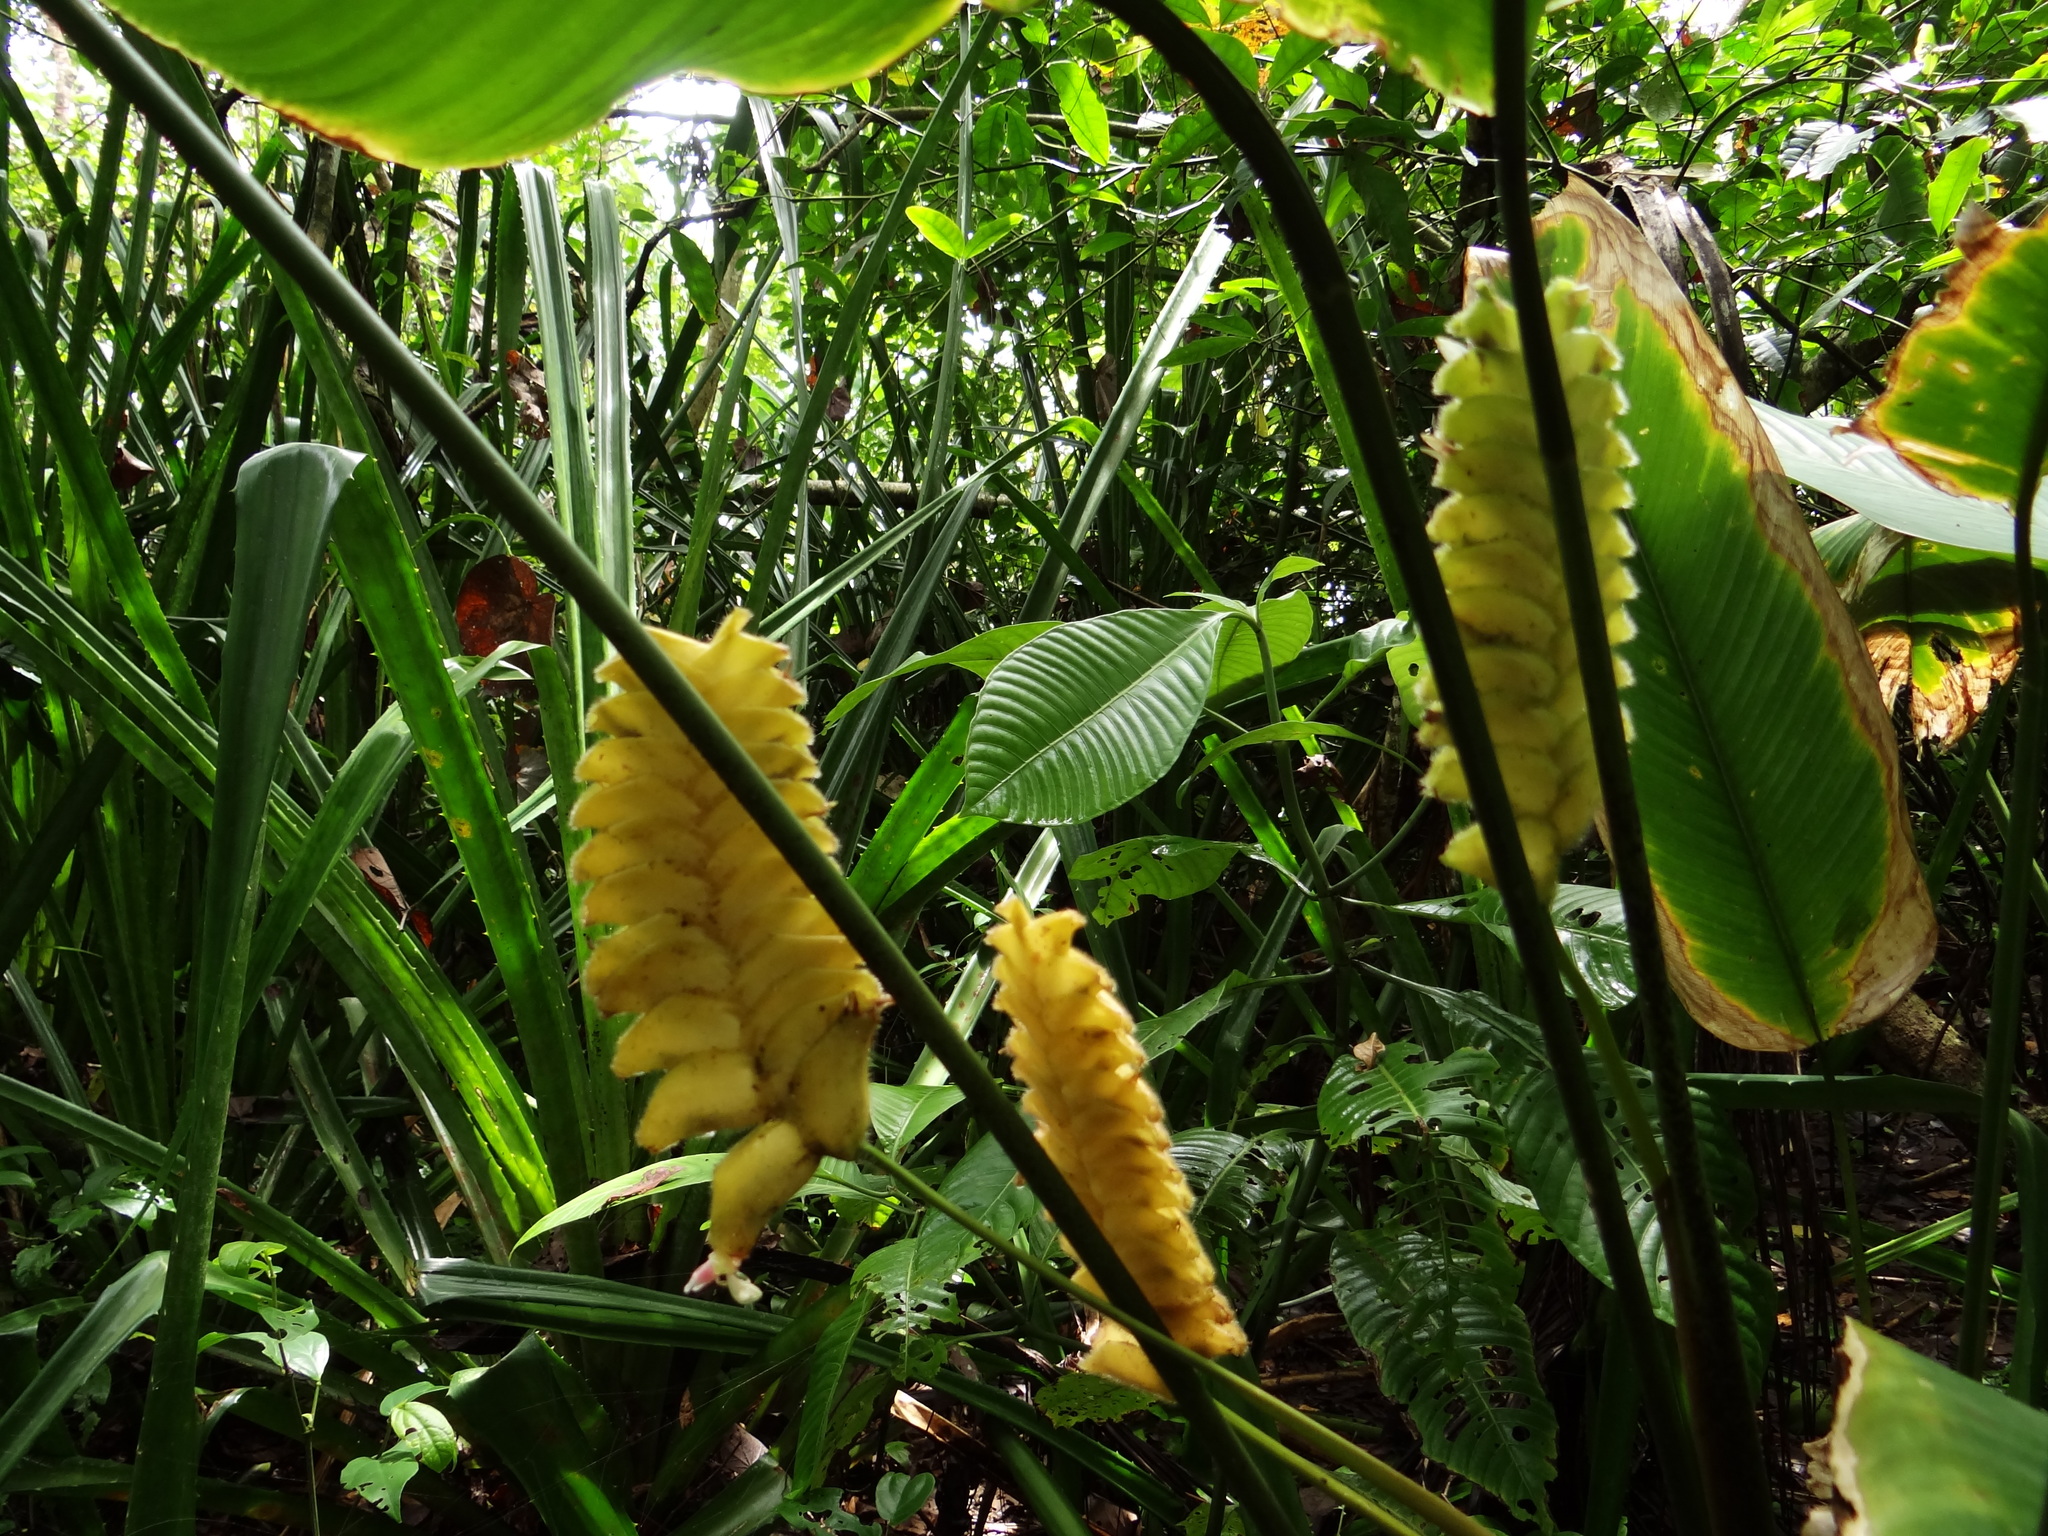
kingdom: Plantae
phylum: Tracheophyta
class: Liliopsida
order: Zingiberales
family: Marantaceae
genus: Calathea
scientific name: Calathea crotalifera
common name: Rattlesnake plant
